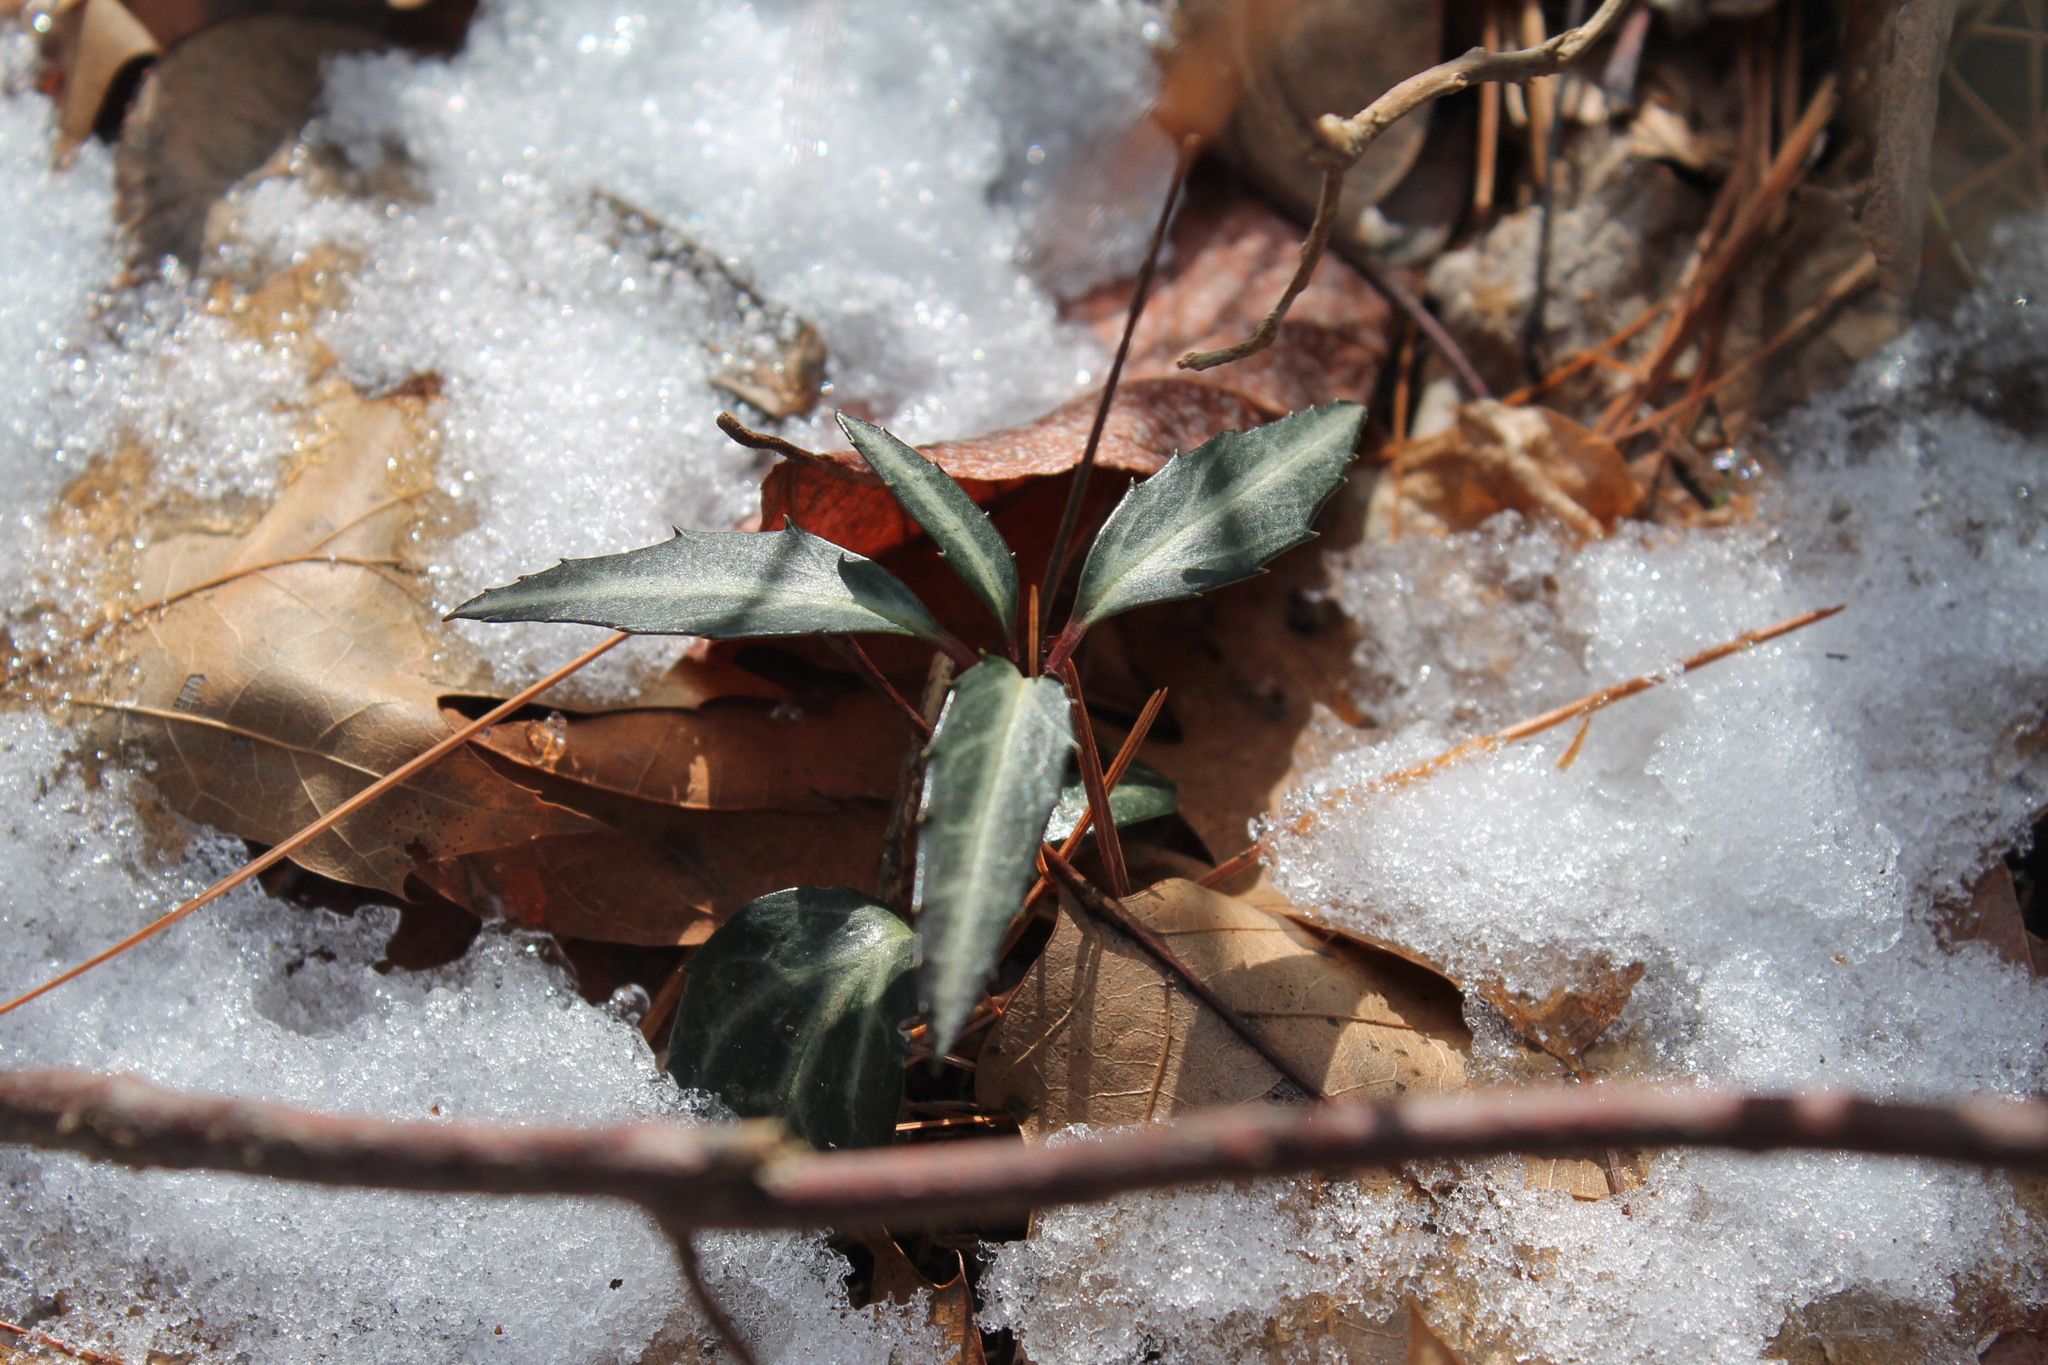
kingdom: Plantae
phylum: Tracheophyta
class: Magnoliopsida
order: Ericales
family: Ericaceae
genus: Chimaphila
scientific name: Chimaphila maculata
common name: Spotted pipsissewa
